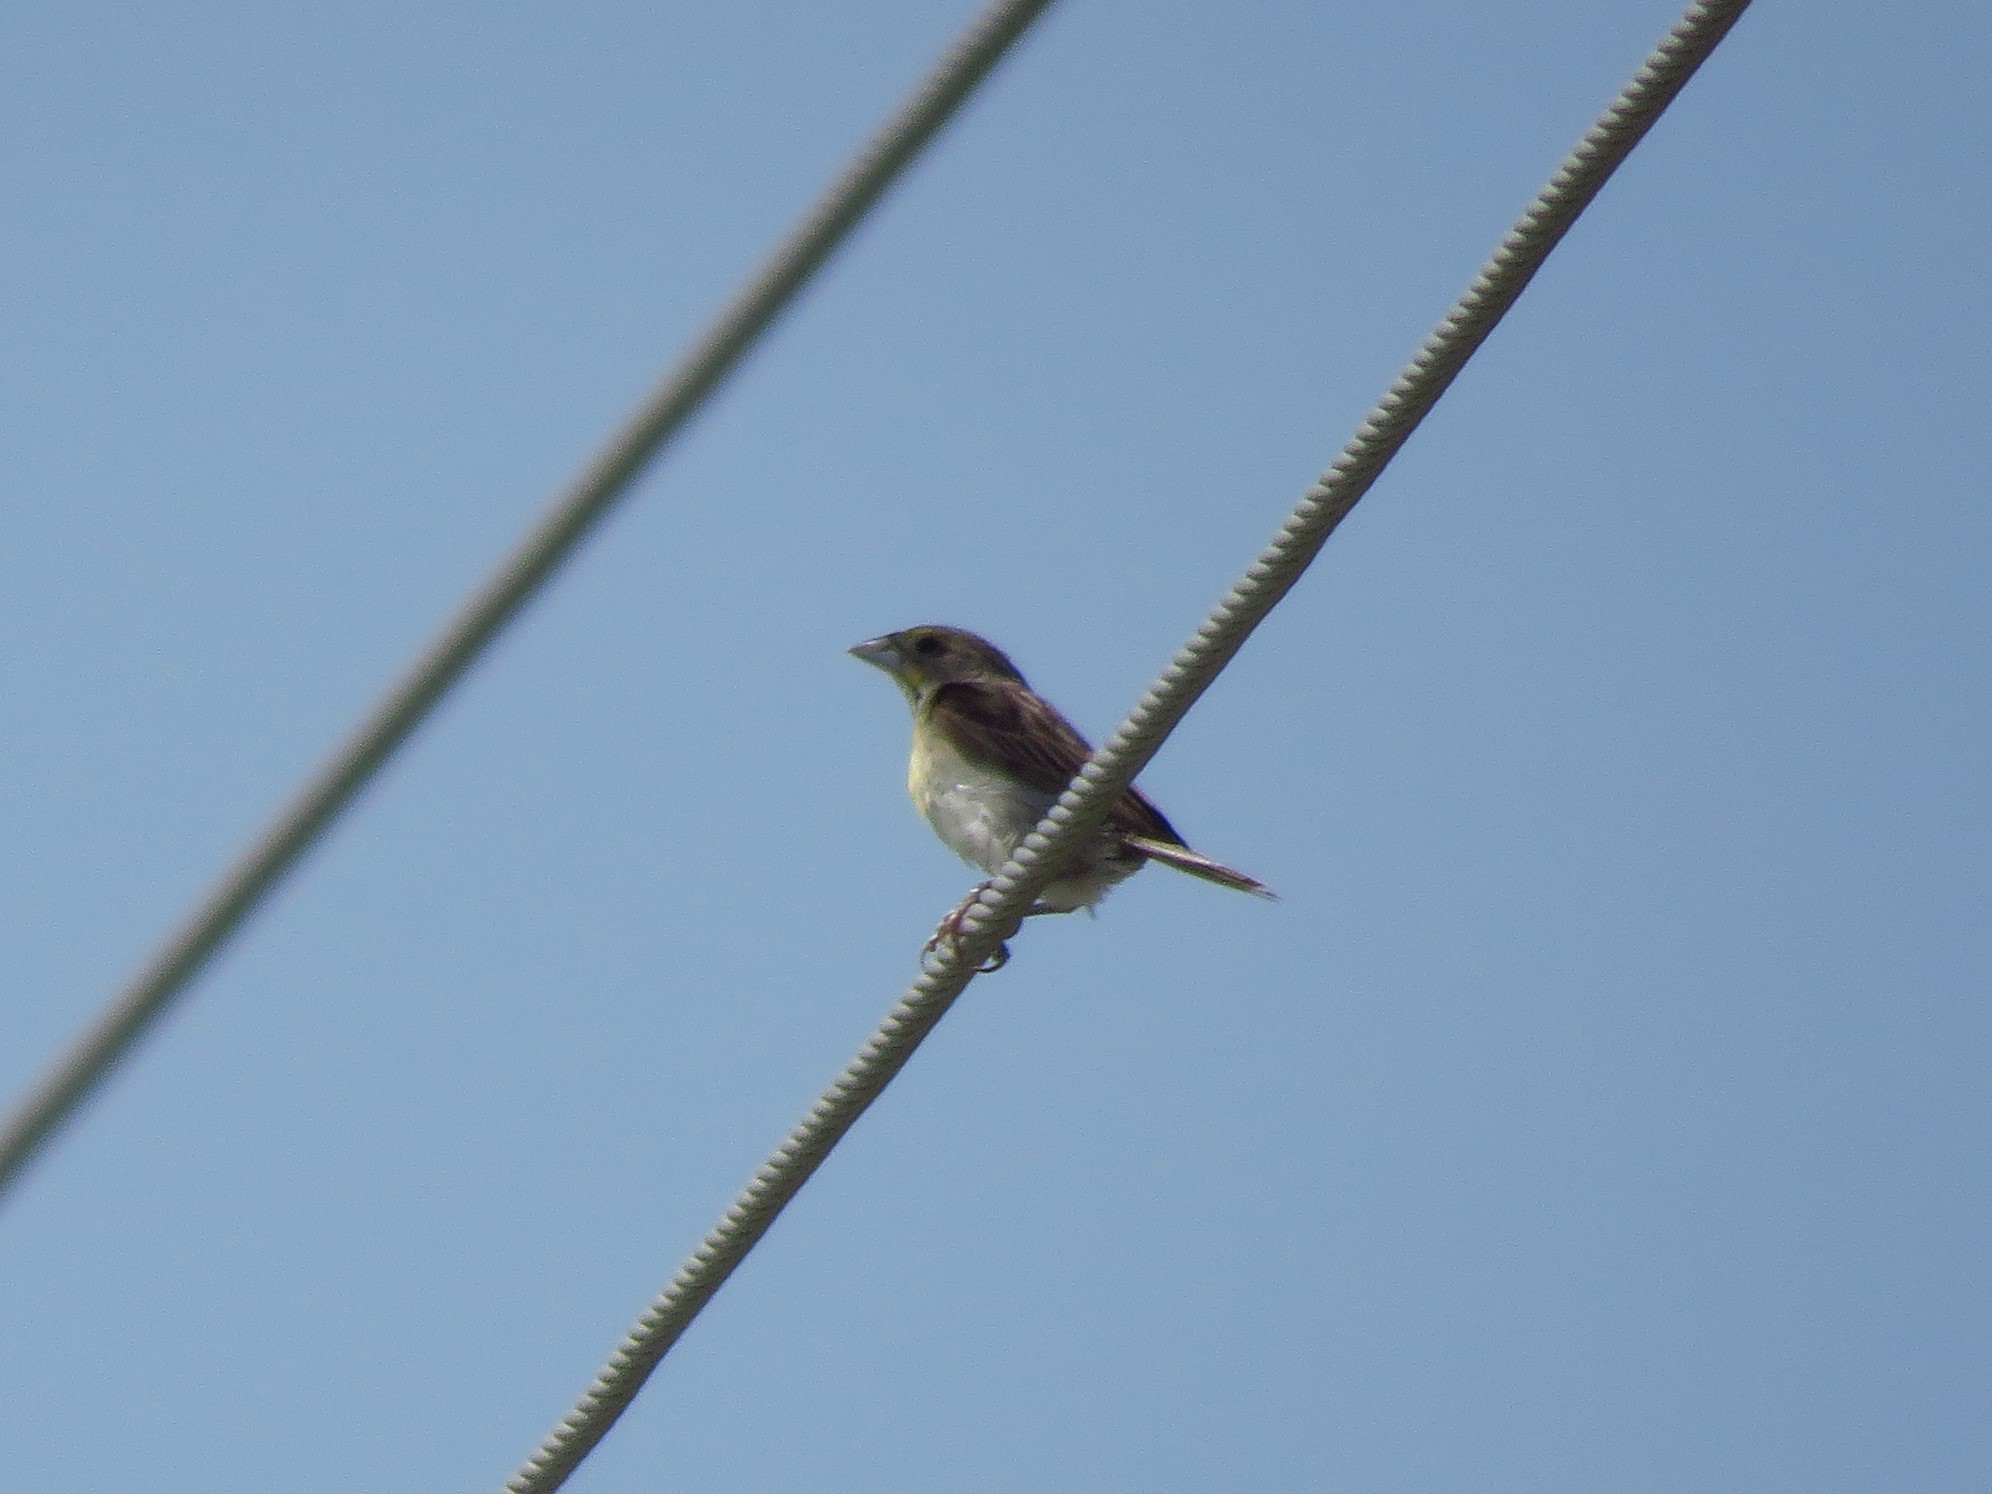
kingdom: Animalia
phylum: Chordata
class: Aves
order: Passeriformes
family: Cardinalidae
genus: Spiza
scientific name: Spiza americana
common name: Dickcissel
